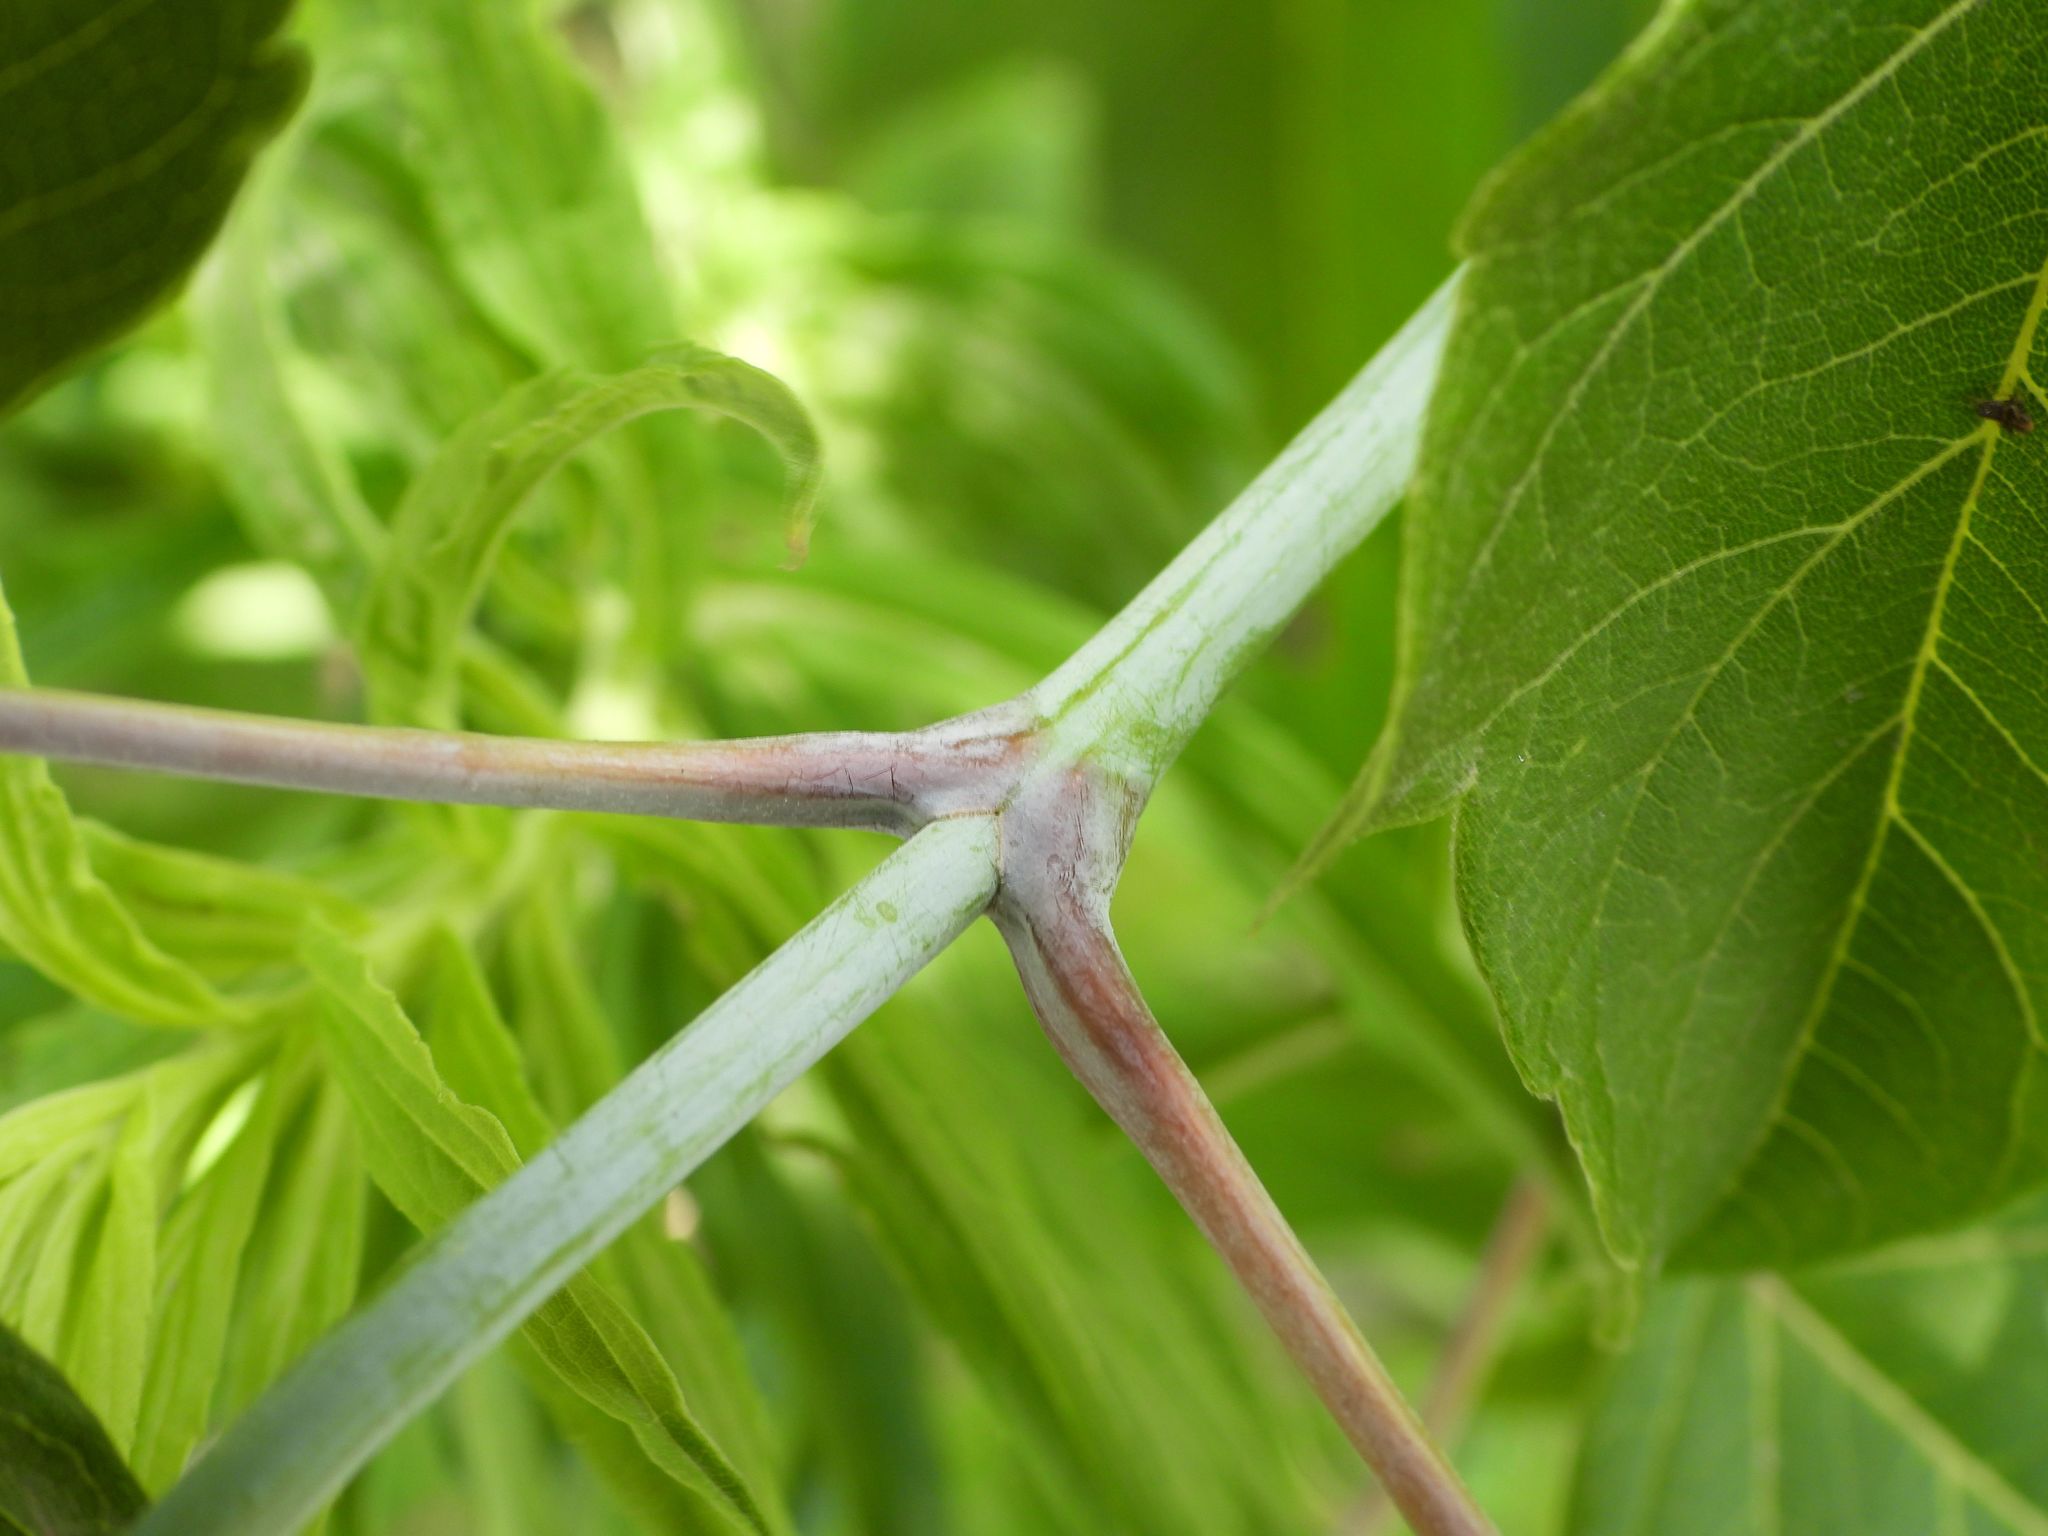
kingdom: Plantae
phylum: Tracheophyta
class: Magnoliopsida
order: Sapindales
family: Sapindaceae
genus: Acer
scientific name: Acer negundo
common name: Ashleaf maple
